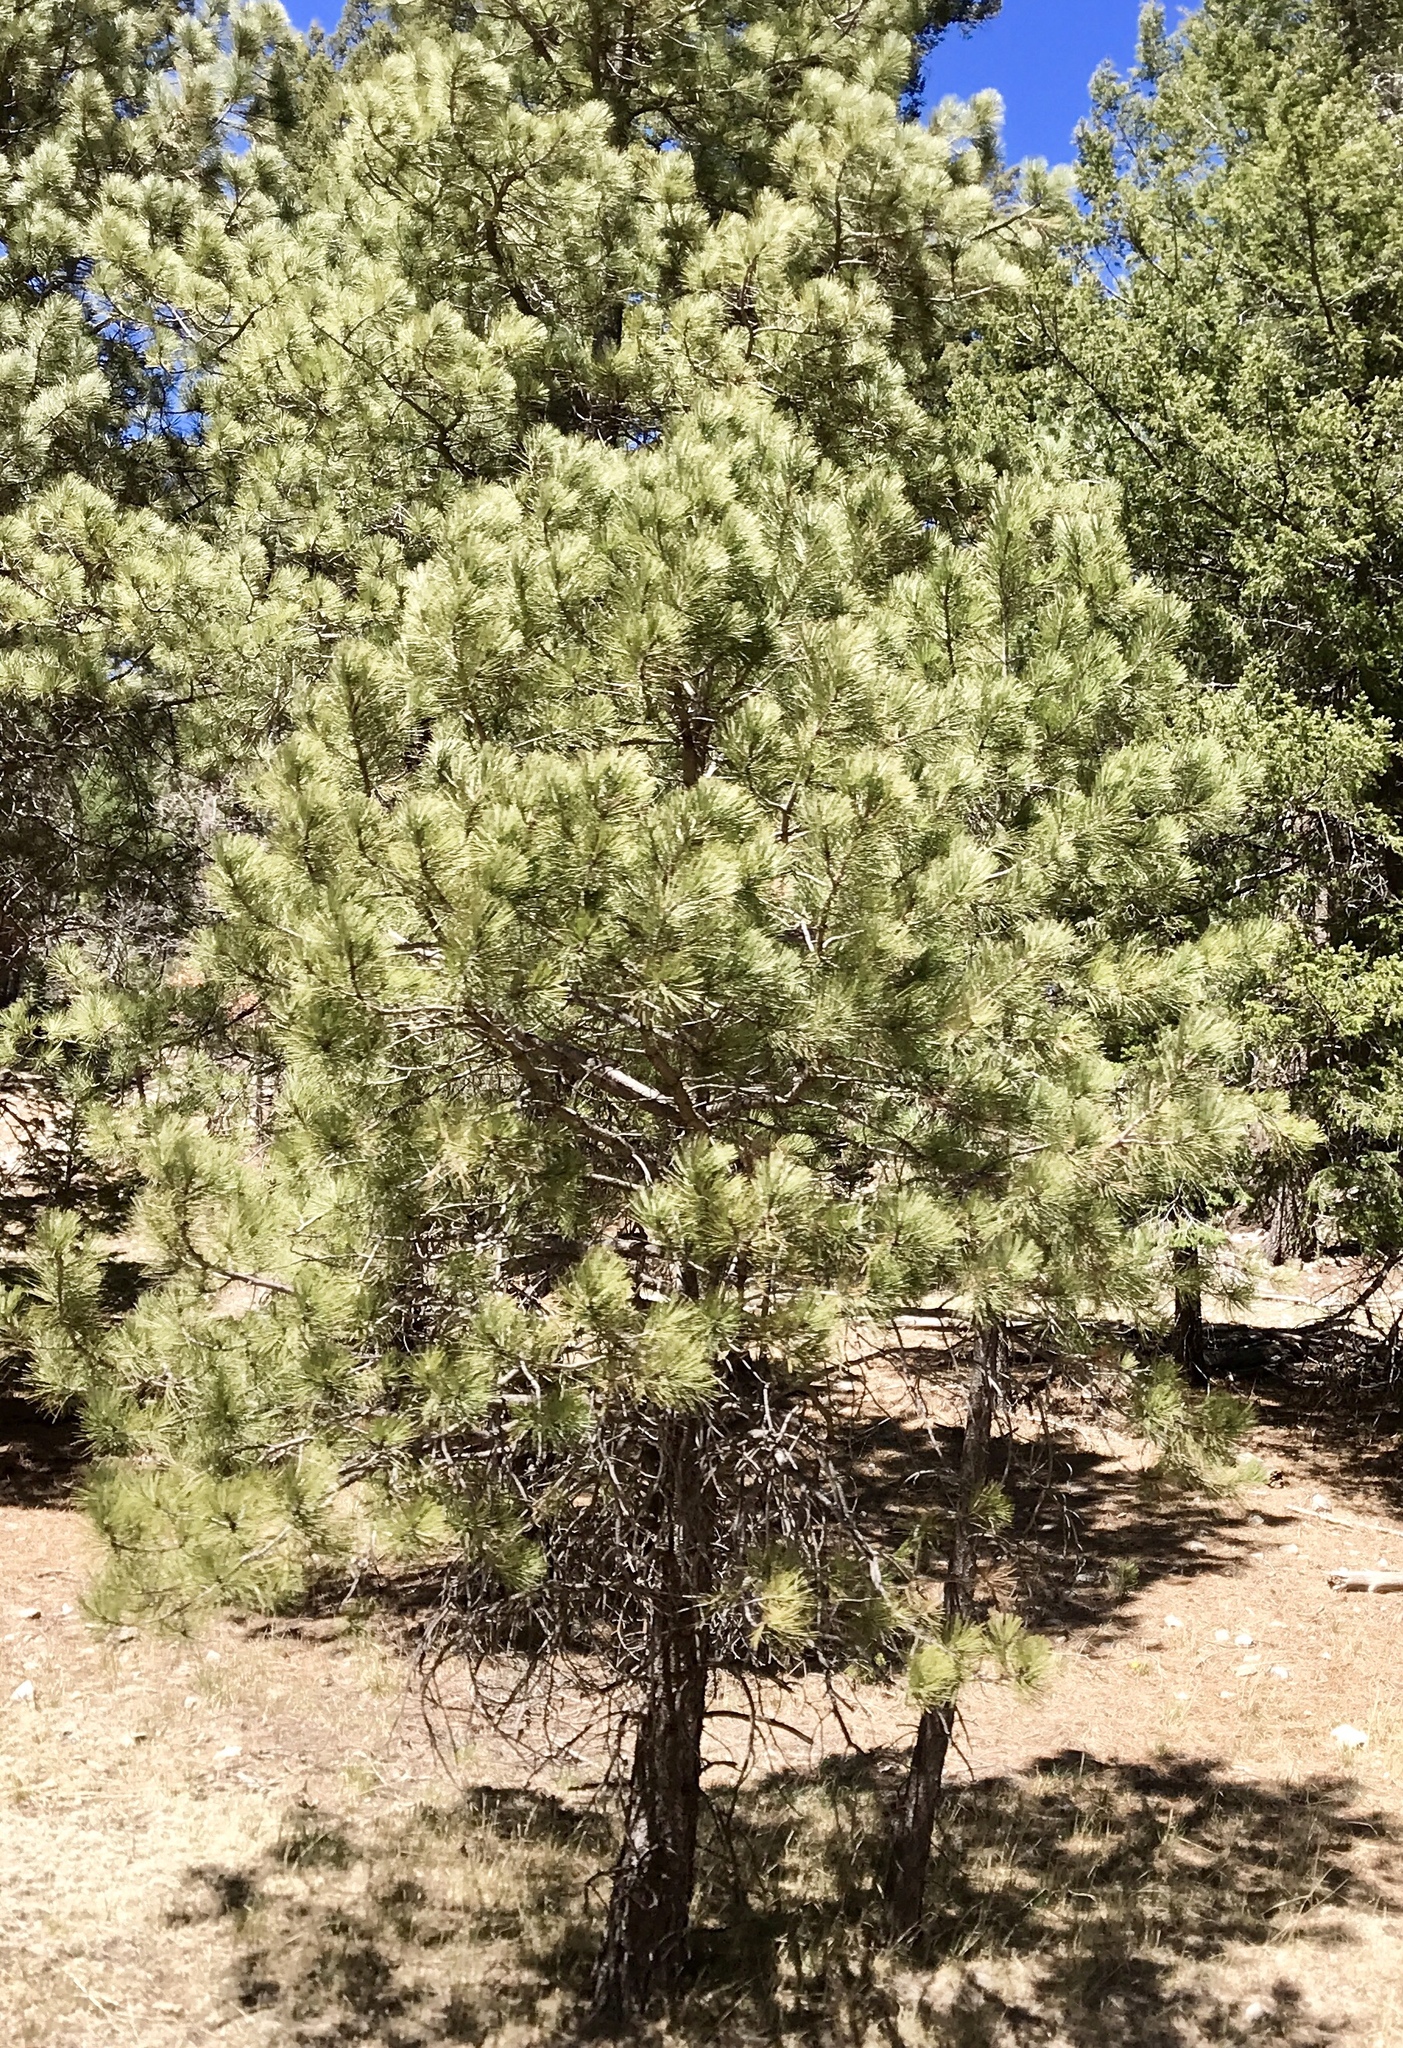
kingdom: Plantae
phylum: Tracheophyta
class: Pinopsida
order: Pinales
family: Pinaceae
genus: Pinus
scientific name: Pinus ponderosa
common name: Western yellow-pine
